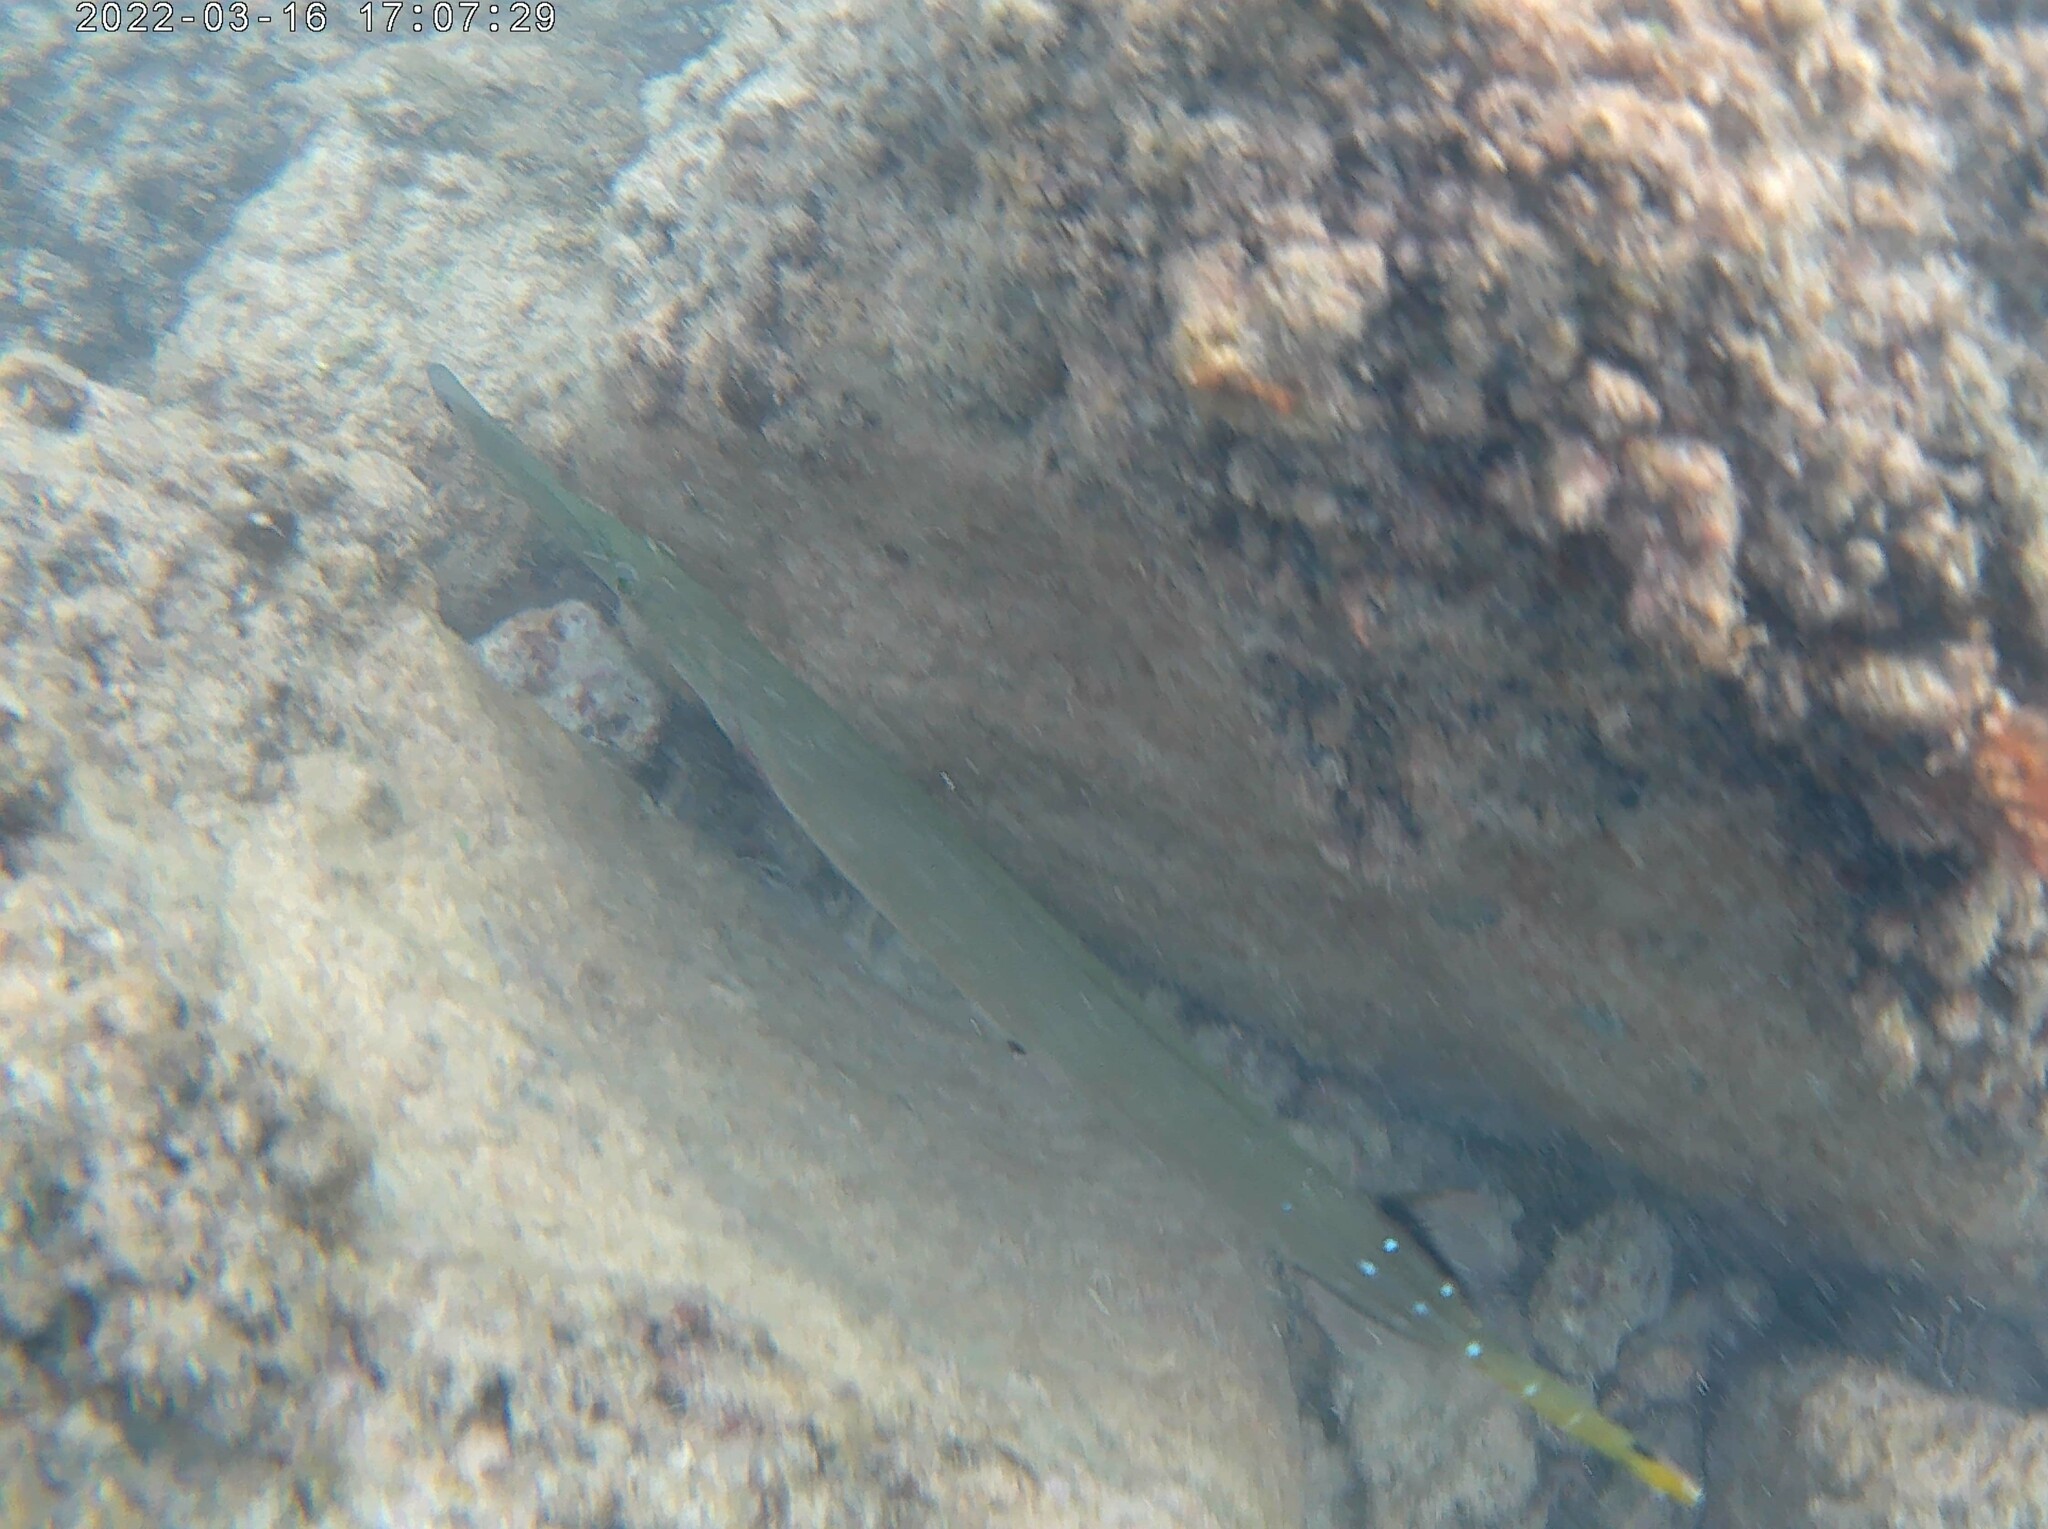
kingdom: Animalia
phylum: Chordata
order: Syngnathiformes
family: Aulostomidae
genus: Aulostomus
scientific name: Aulostomus chinensis
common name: Chinese trumpetfish
